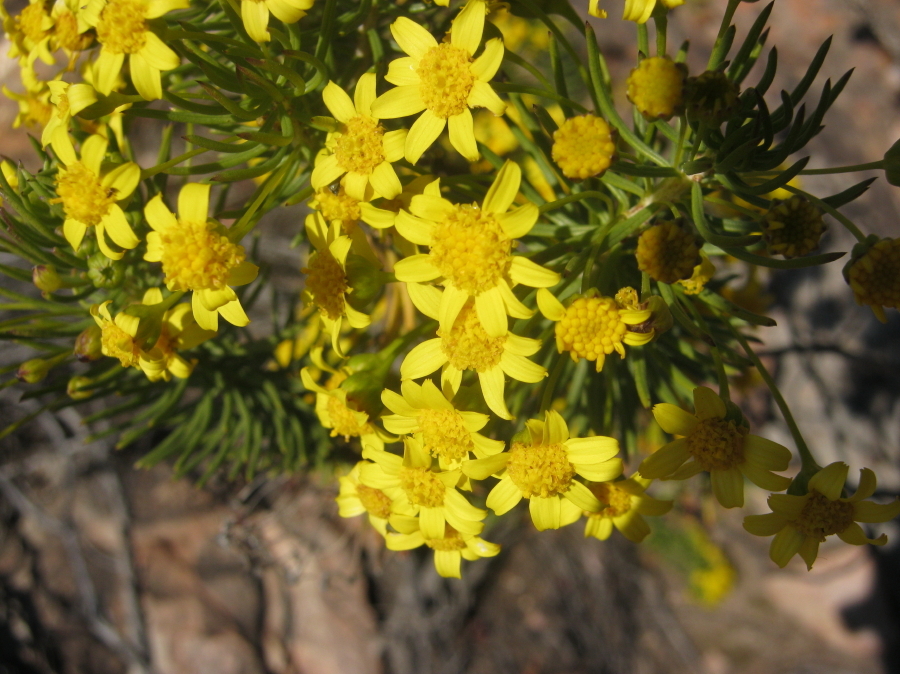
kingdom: Plantae
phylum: Tracheophyta
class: Magnoliopsida
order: Asterales
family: Asteraceae
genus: Euryops
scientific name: Euryops rehmannii
